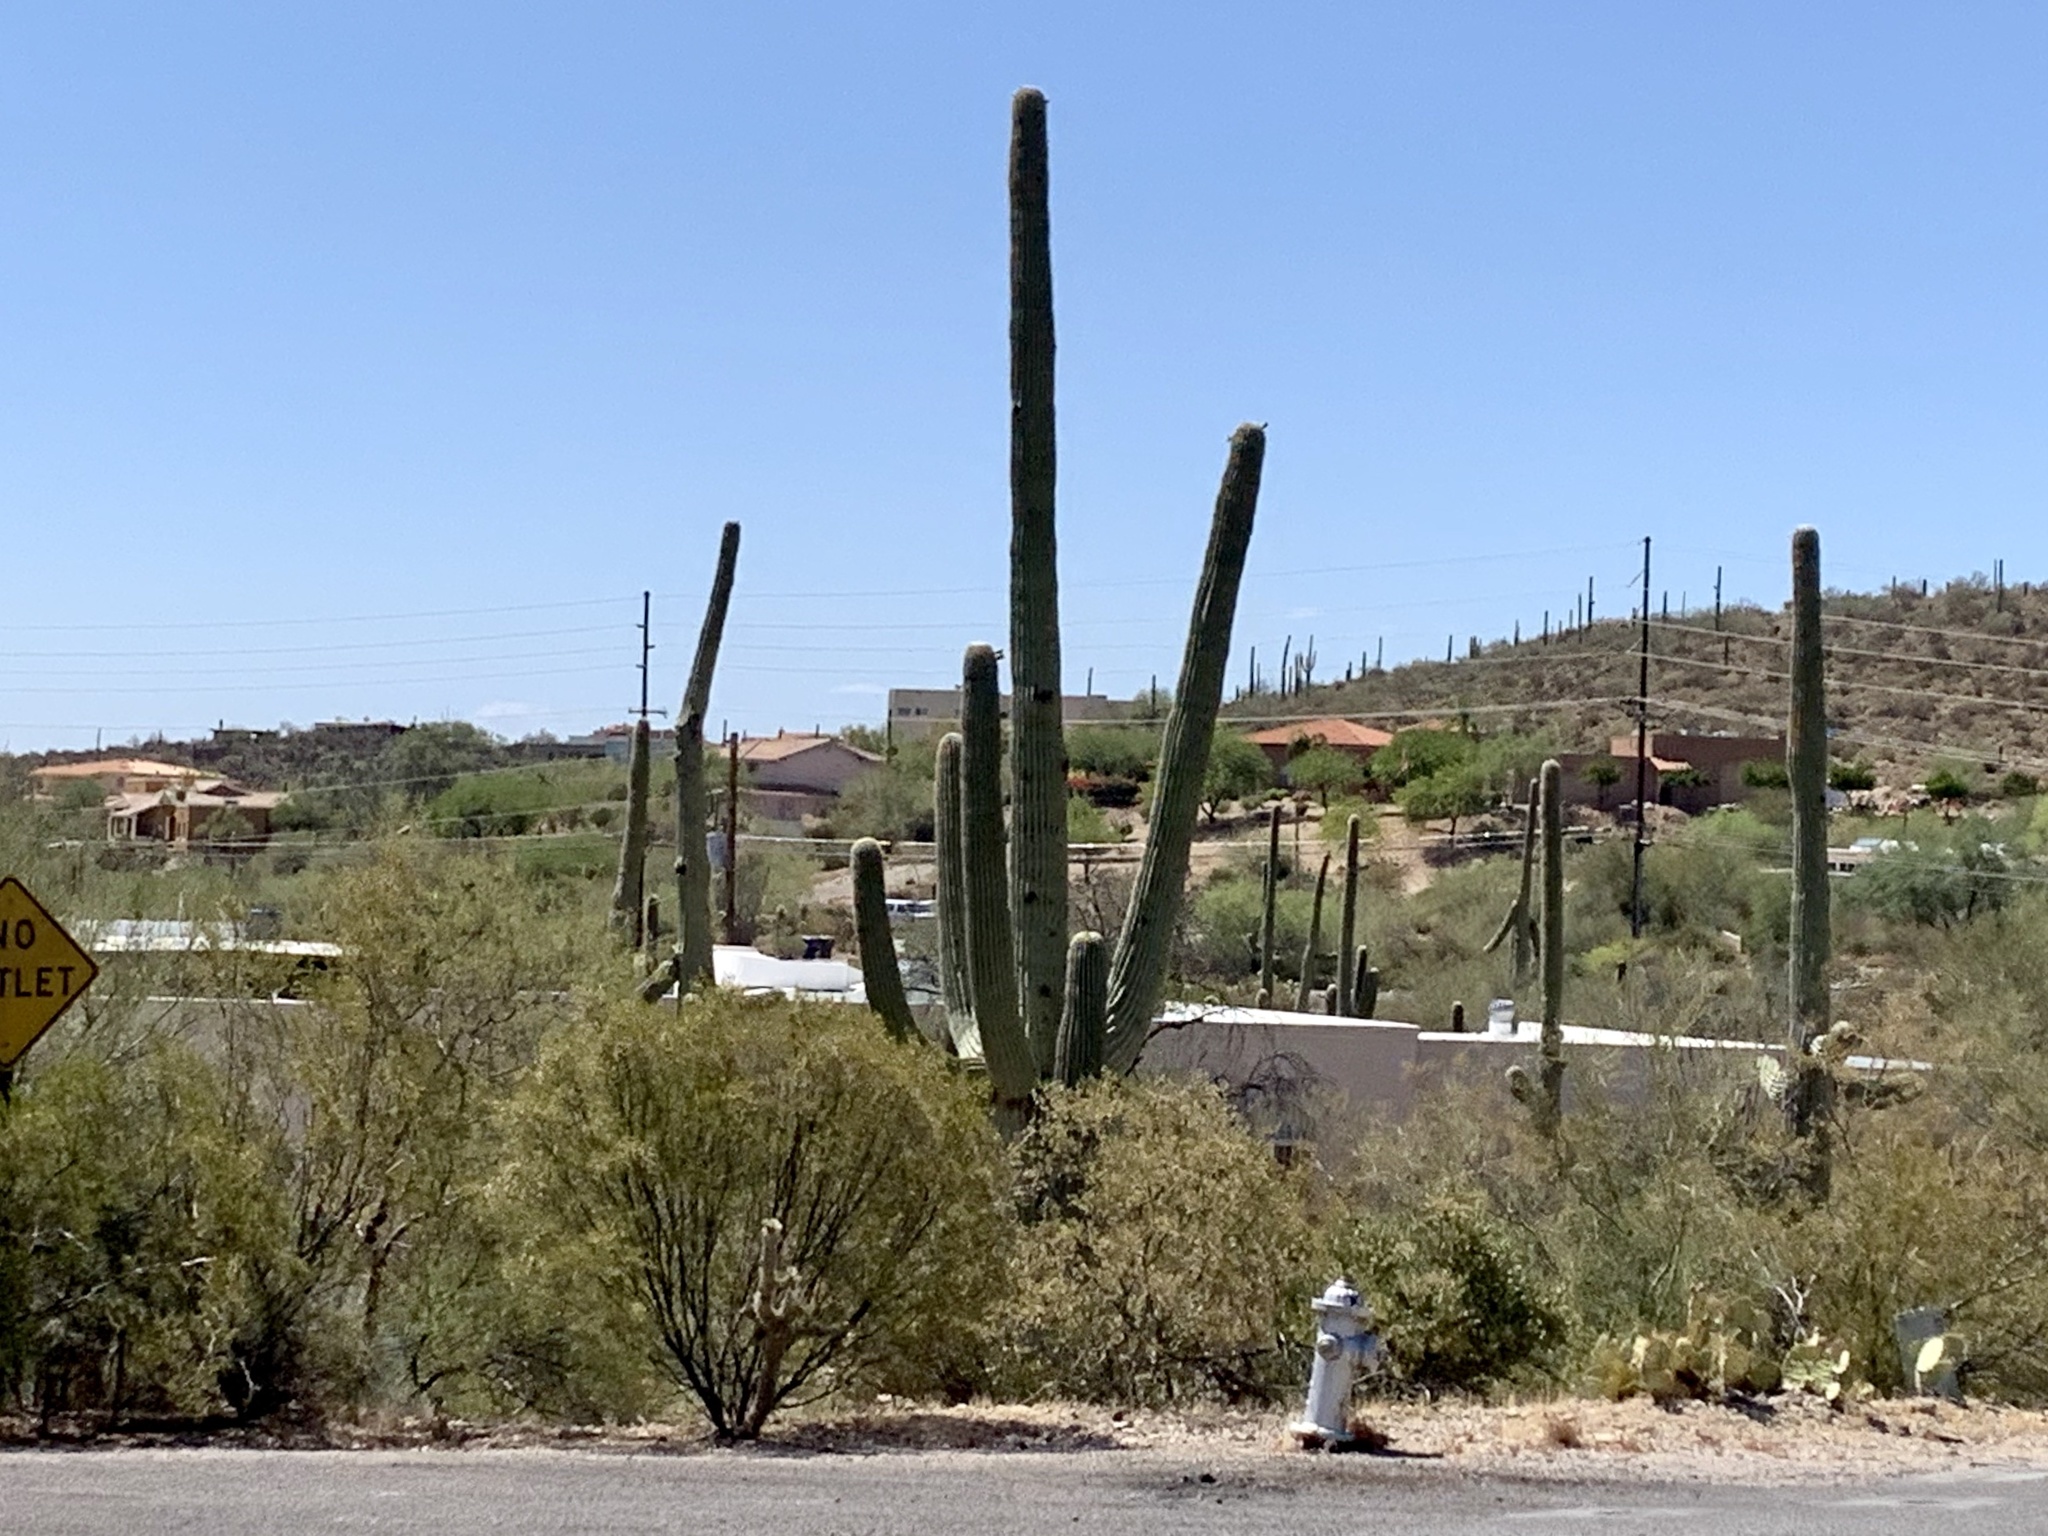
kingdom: Plantae
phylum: Tracheophyta
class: Magnoliopsida
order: Caryophyllales
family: Cactaceae
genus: Carnegiea
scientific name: Carnegiea gigantea
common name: Saguaro
